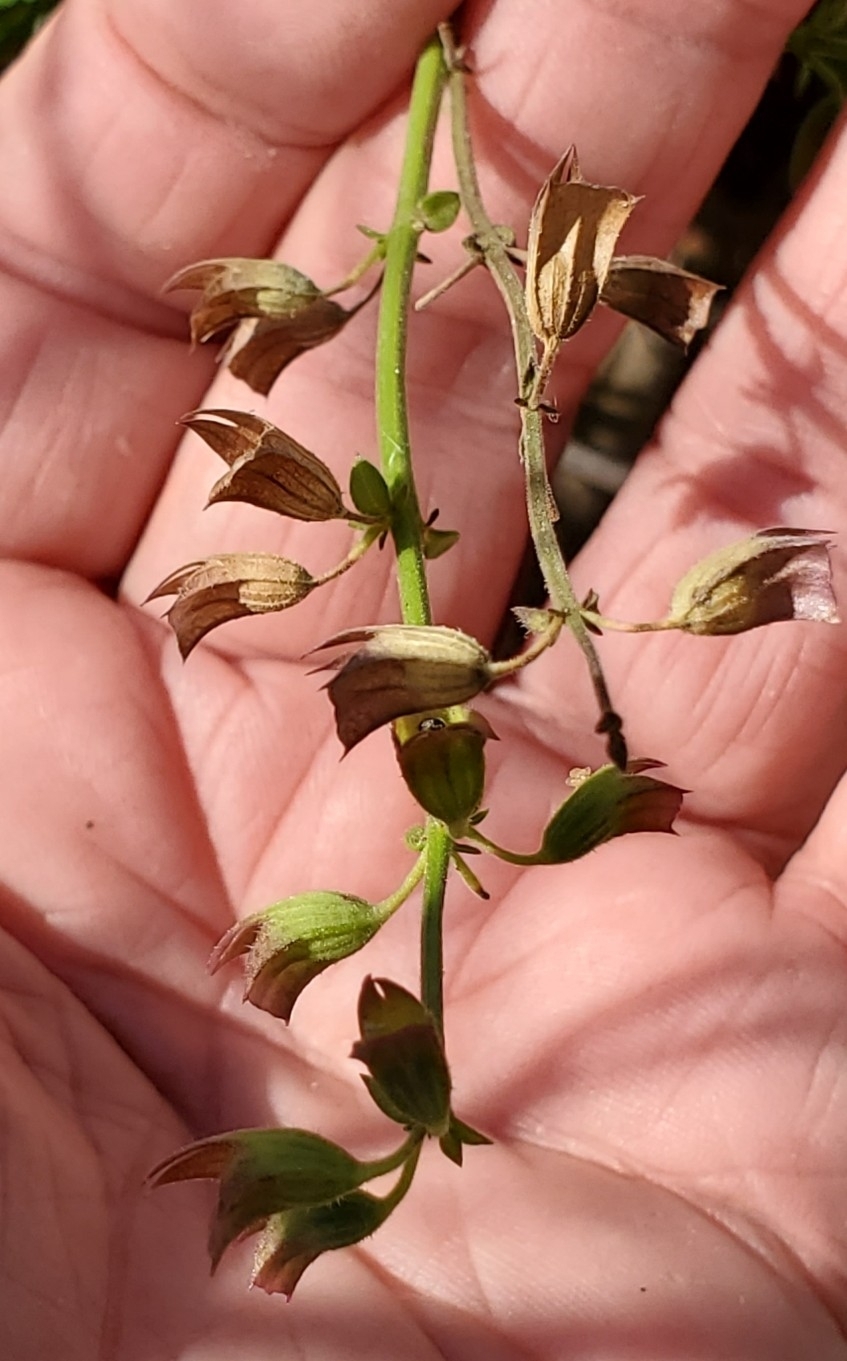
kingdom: Plantae
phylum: Tracheophyta
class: Magnoliopsida
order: Lamiales
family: Lamiaceae
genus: Salvia
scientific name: Salvia roemeriana
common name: Cedar sage
